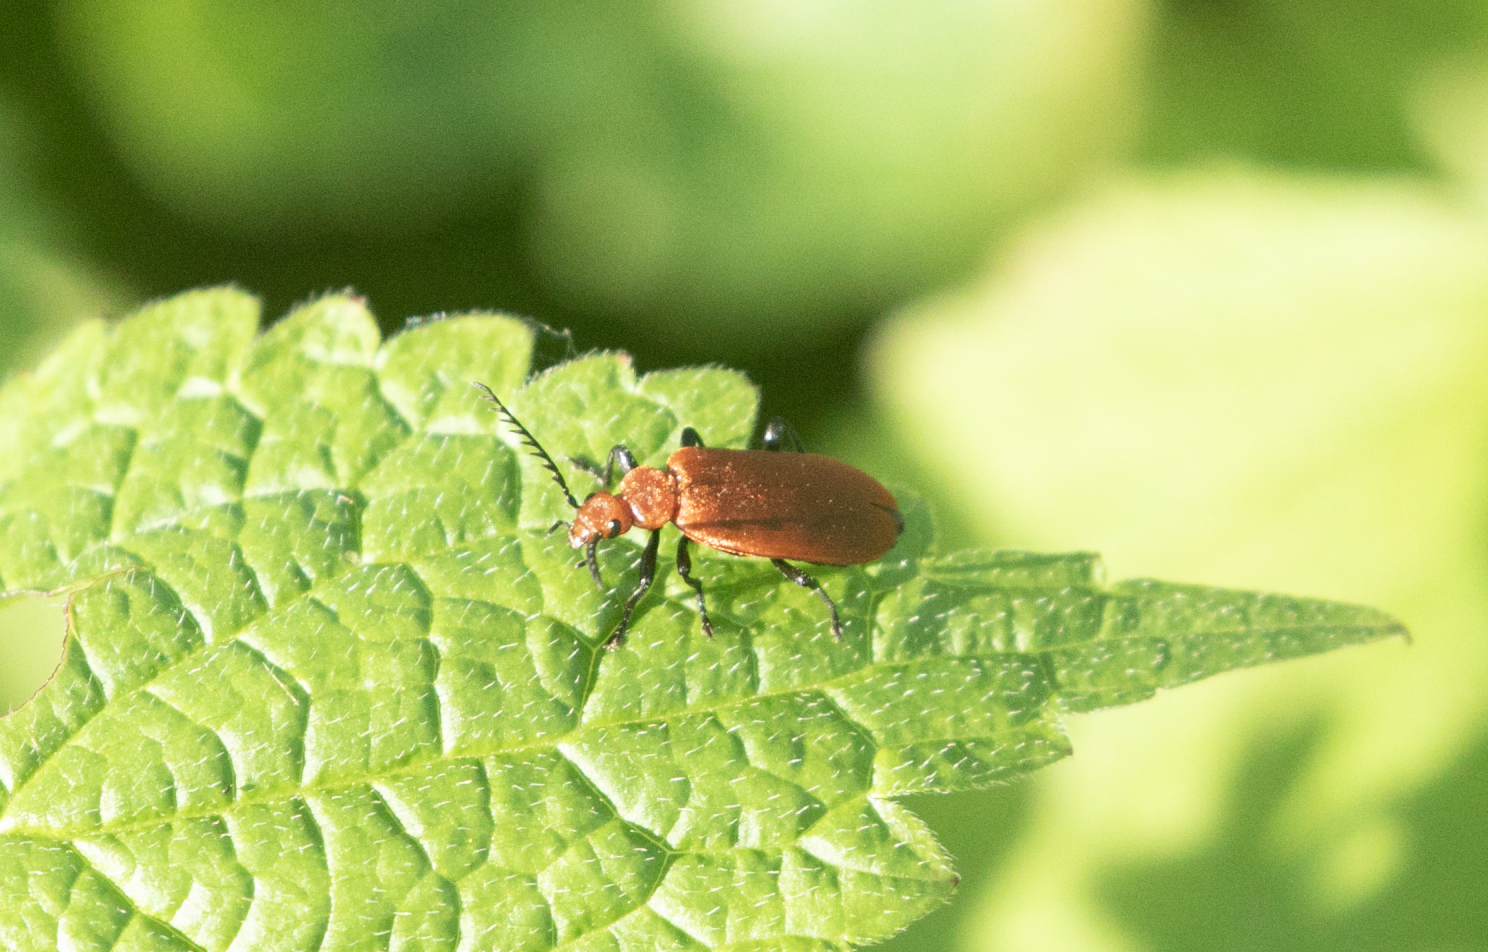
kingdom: Animalia
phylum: Arthropoda
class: Insecta
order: Coleoptera
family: Pyrochroidae
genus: Pyrochroa
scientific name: Pyrochroa serraticornis
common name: Red-headed cardinal beetle
